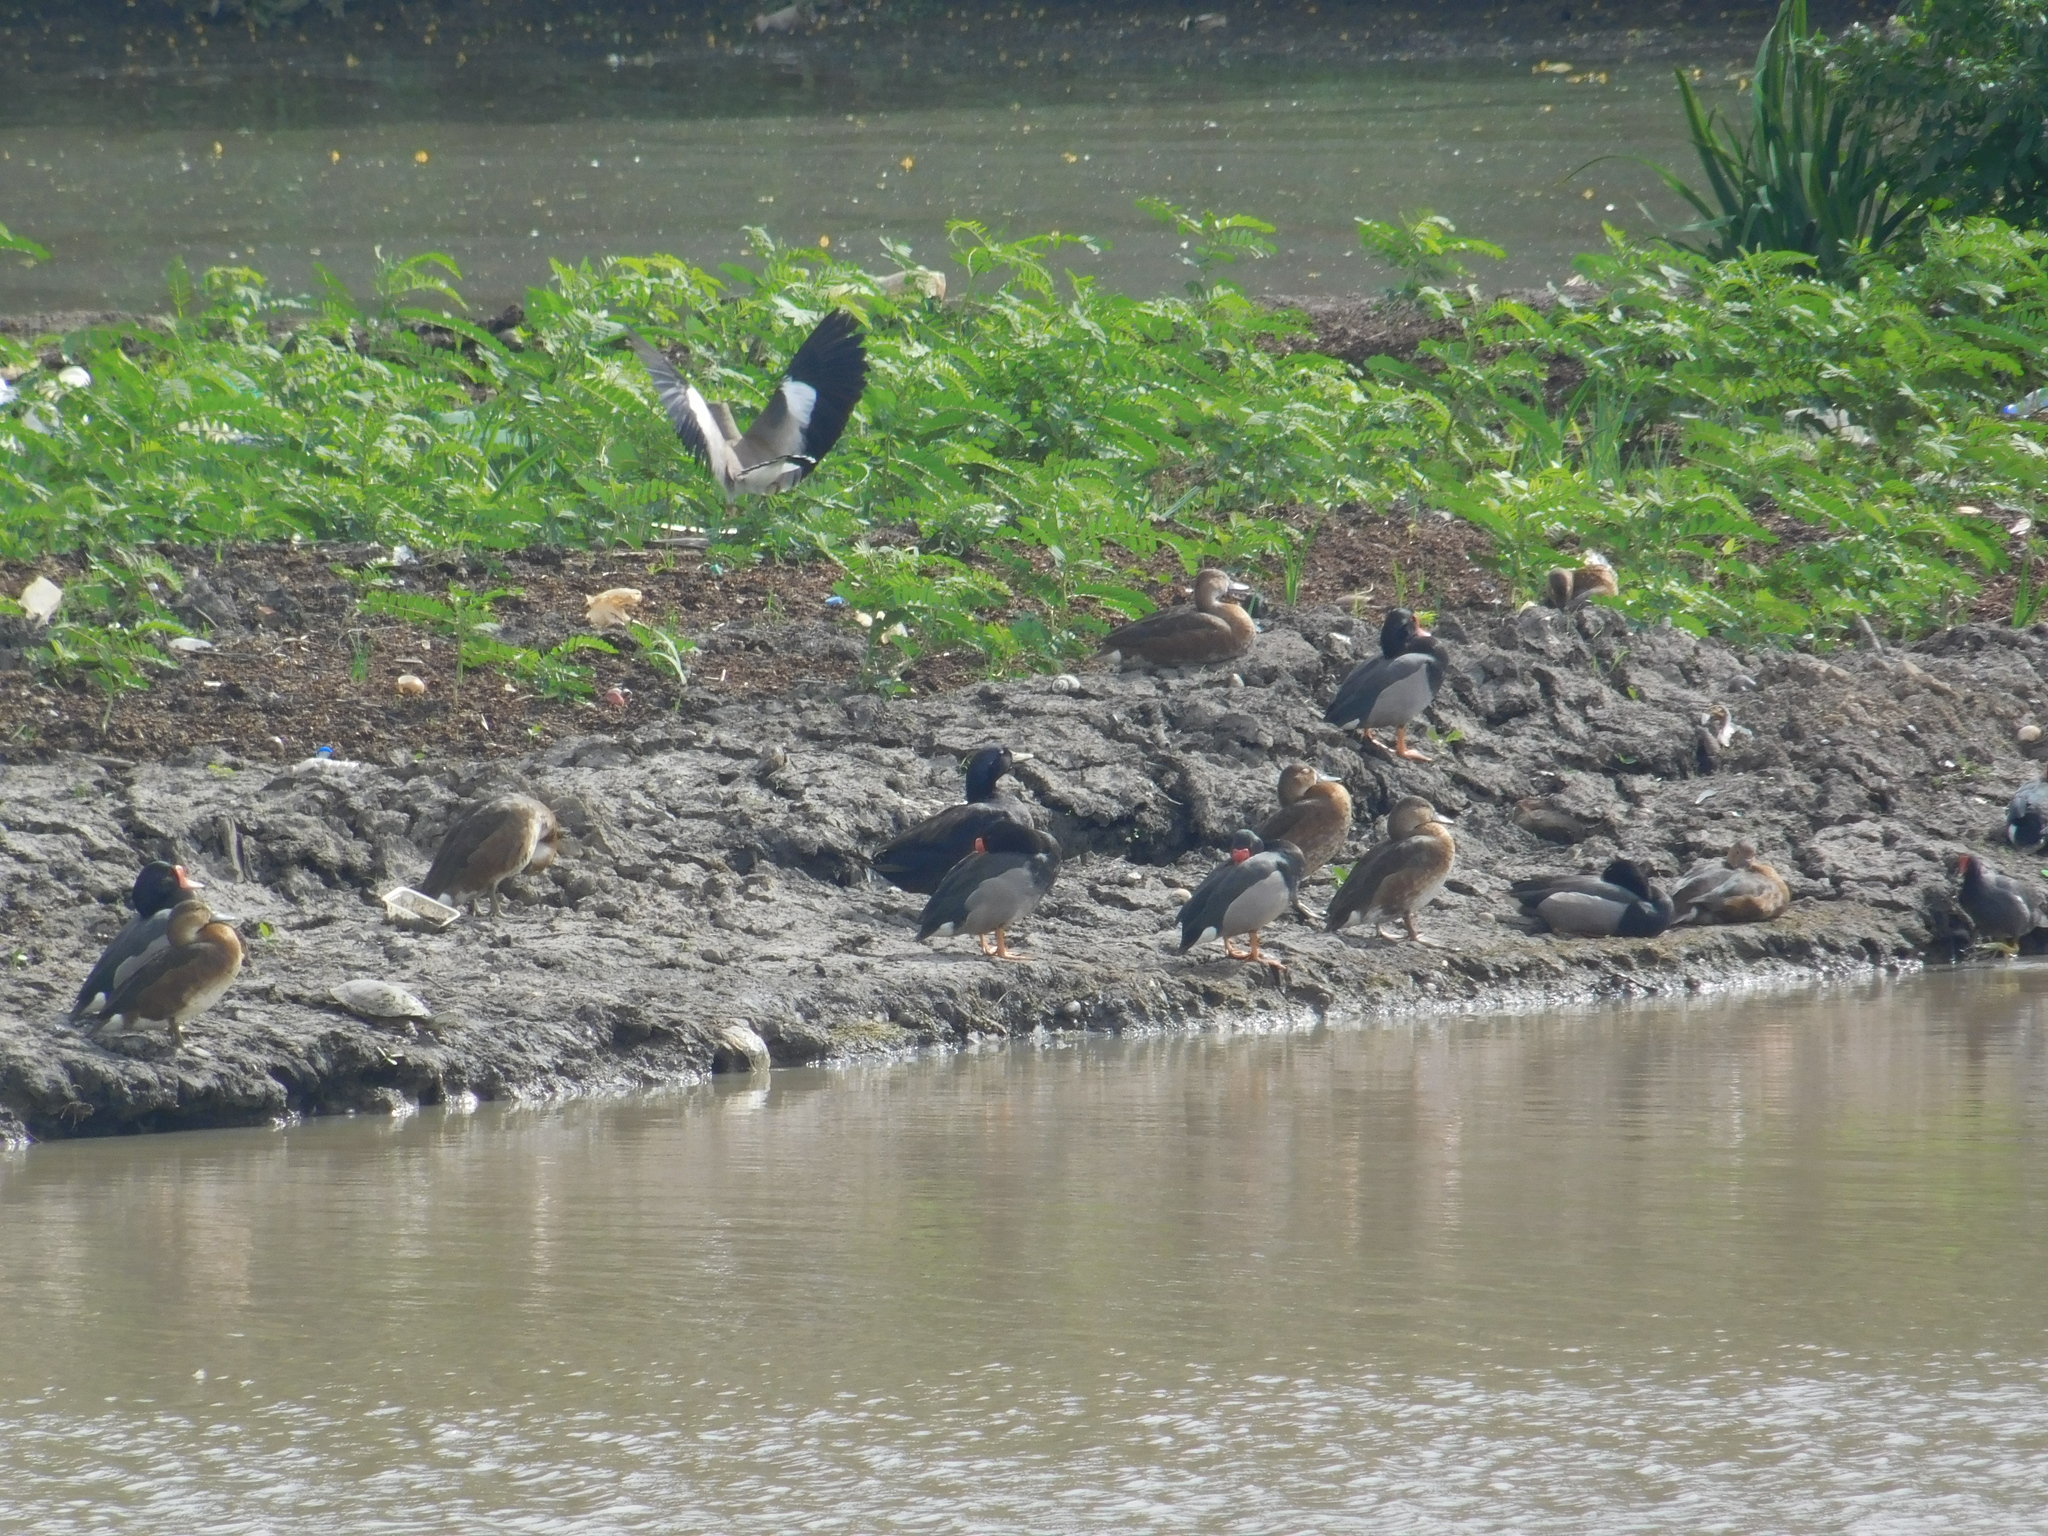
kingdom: Animalia
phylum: Chordata
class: Aves
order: Anseriformes
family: Anatidae
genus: Anas
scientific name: Anas platyrhynchos
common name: Mallard
